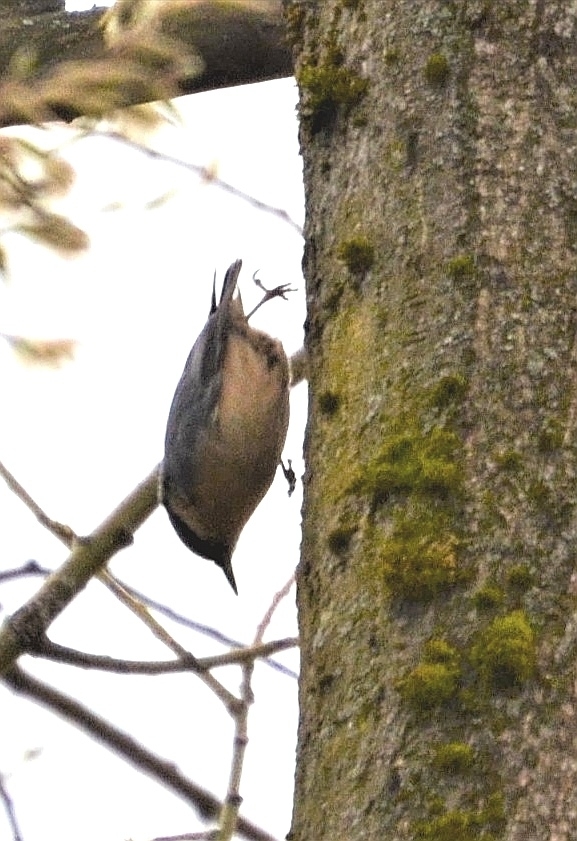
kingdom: Animalia
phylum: Chordata
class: Aves
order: Passeriformes
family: Sittidae
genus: Sitta
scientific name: Sitta europaea
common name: Eurasian nuthatch
